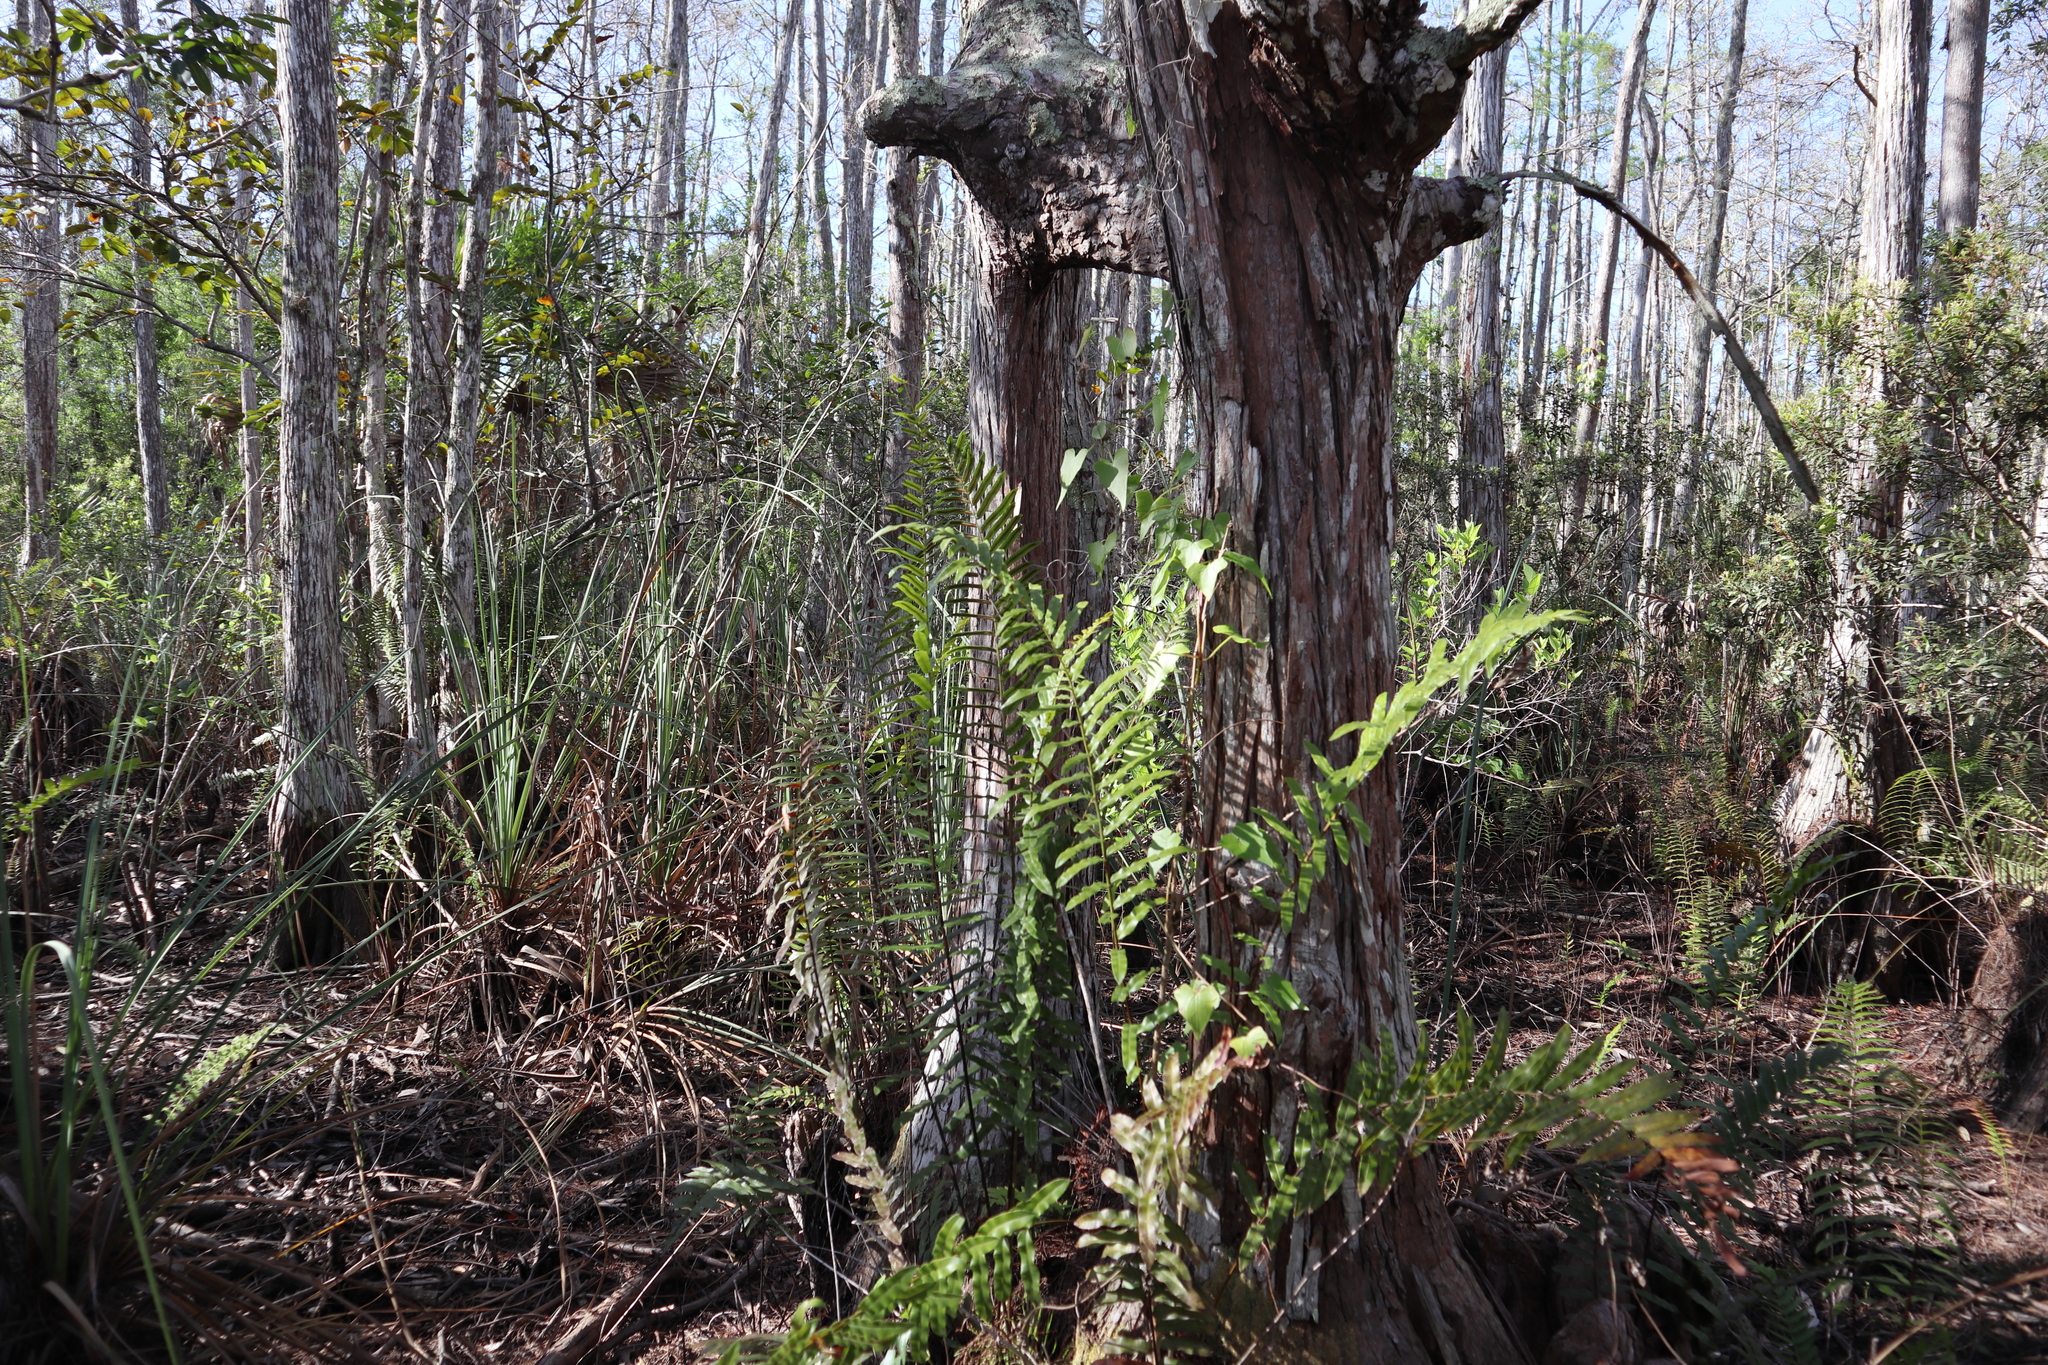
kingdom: Plantae
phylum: Tracheophyta
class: Magnoliopsida
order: Asterales
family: Asteraceae
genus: Mikania
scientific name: Mikania scandens
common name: Climbing hempvine
